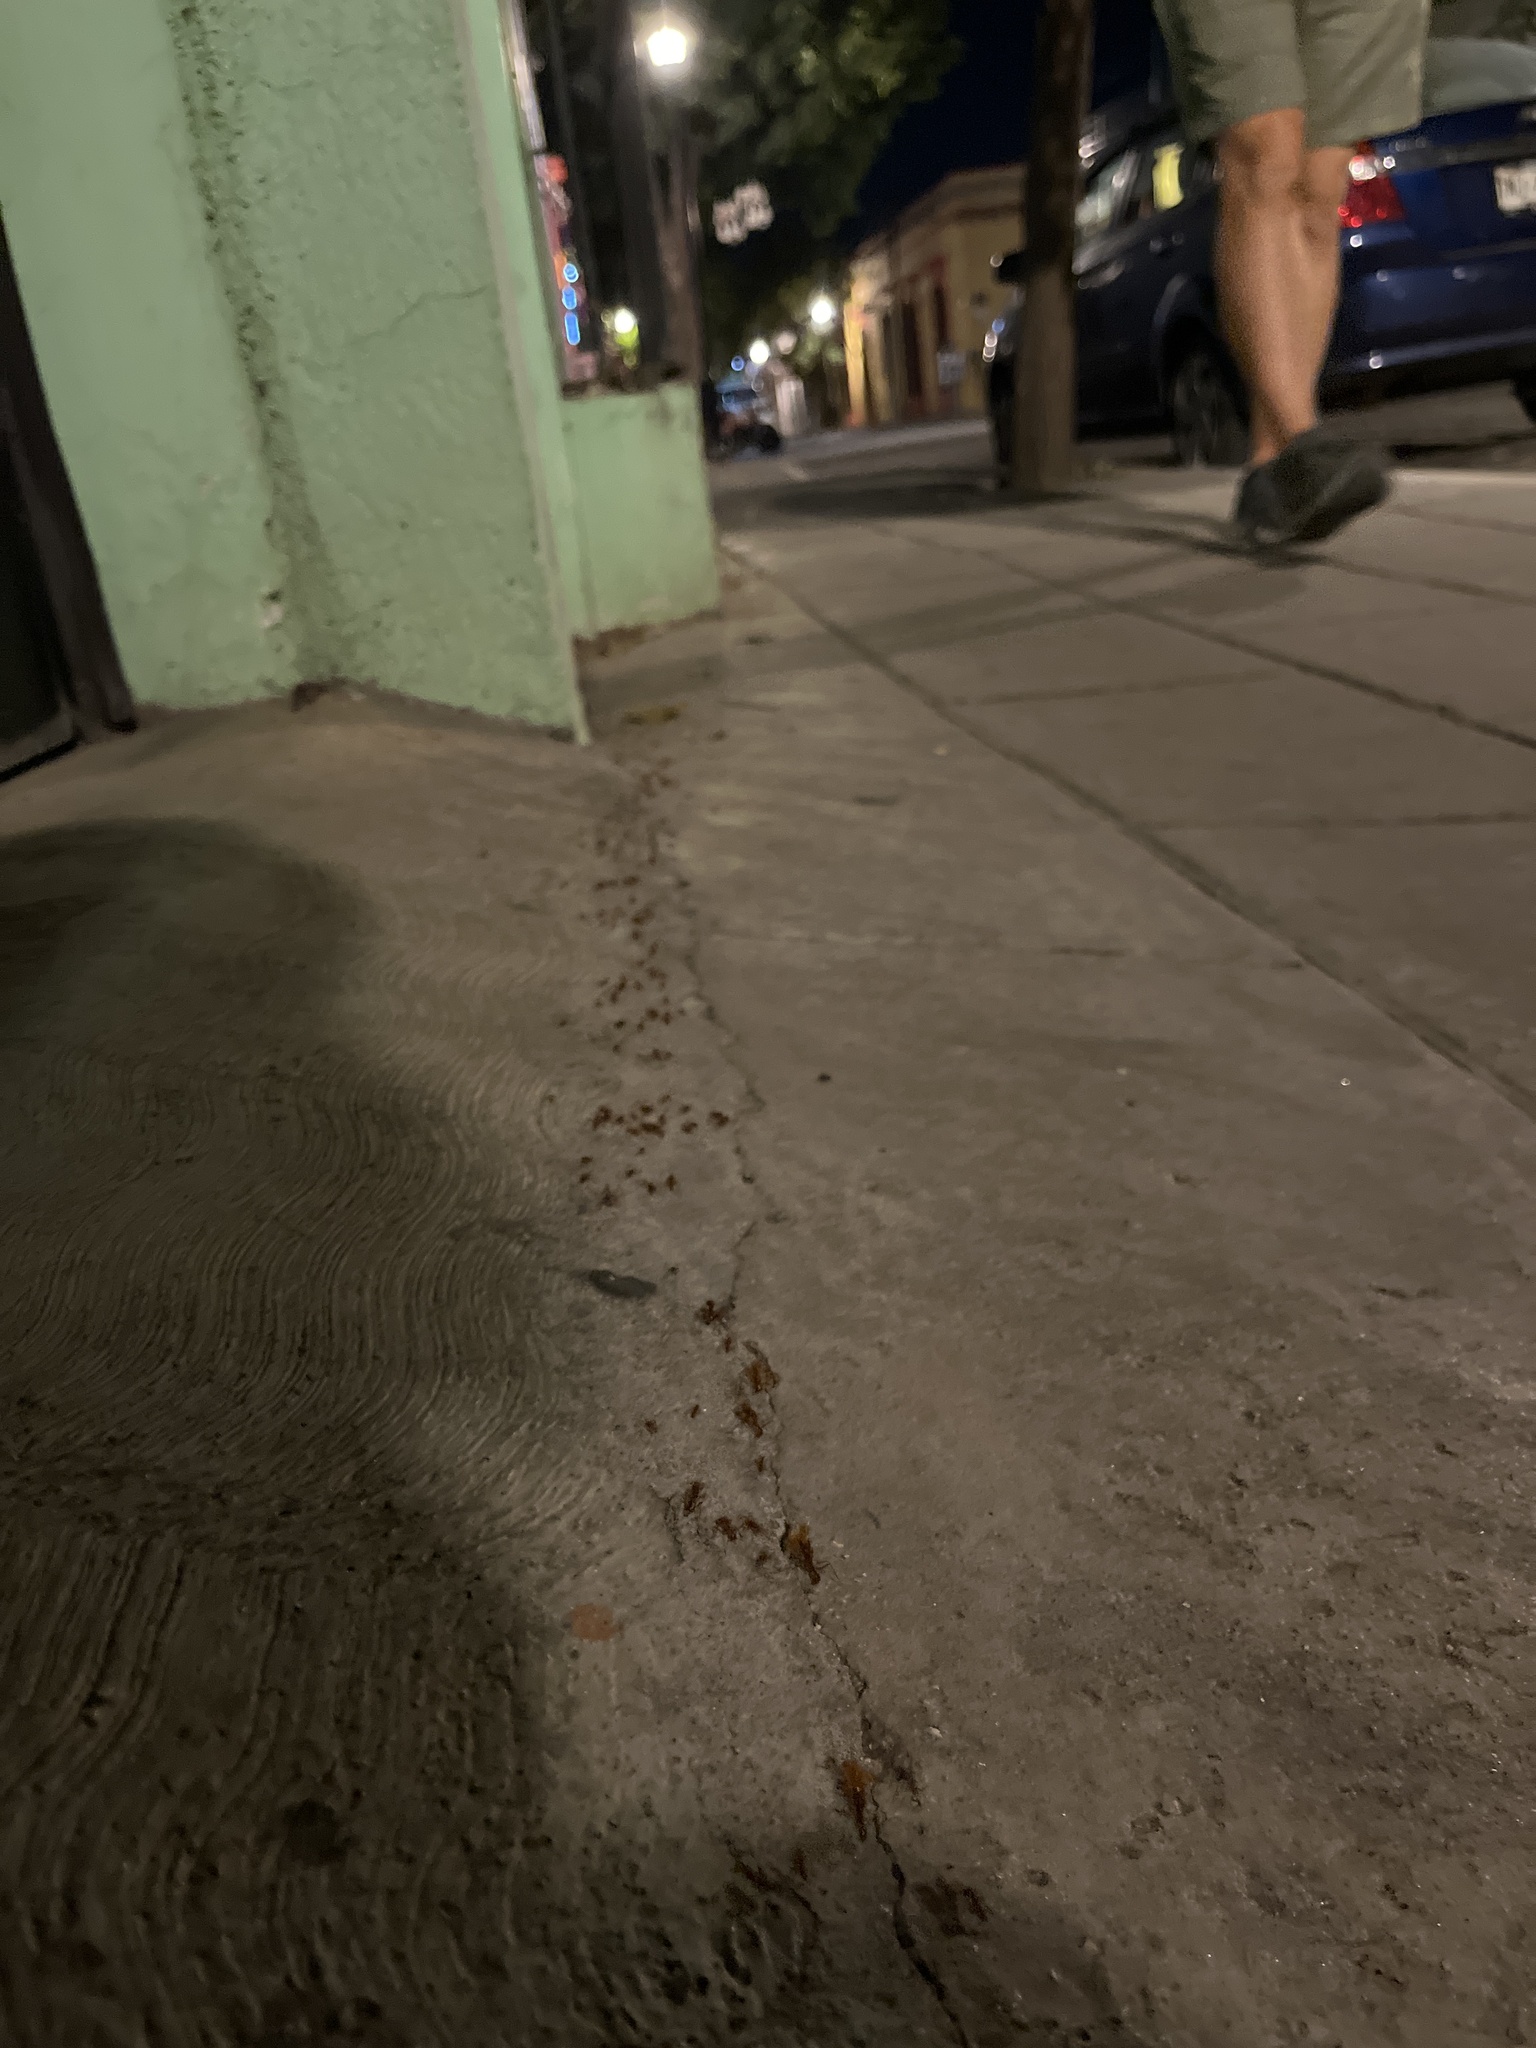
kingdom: Animalia
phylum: Arthropoda
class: Insecta
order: Hymenoptera
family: Formicidae
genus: Atta
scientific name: Atta mexicana
